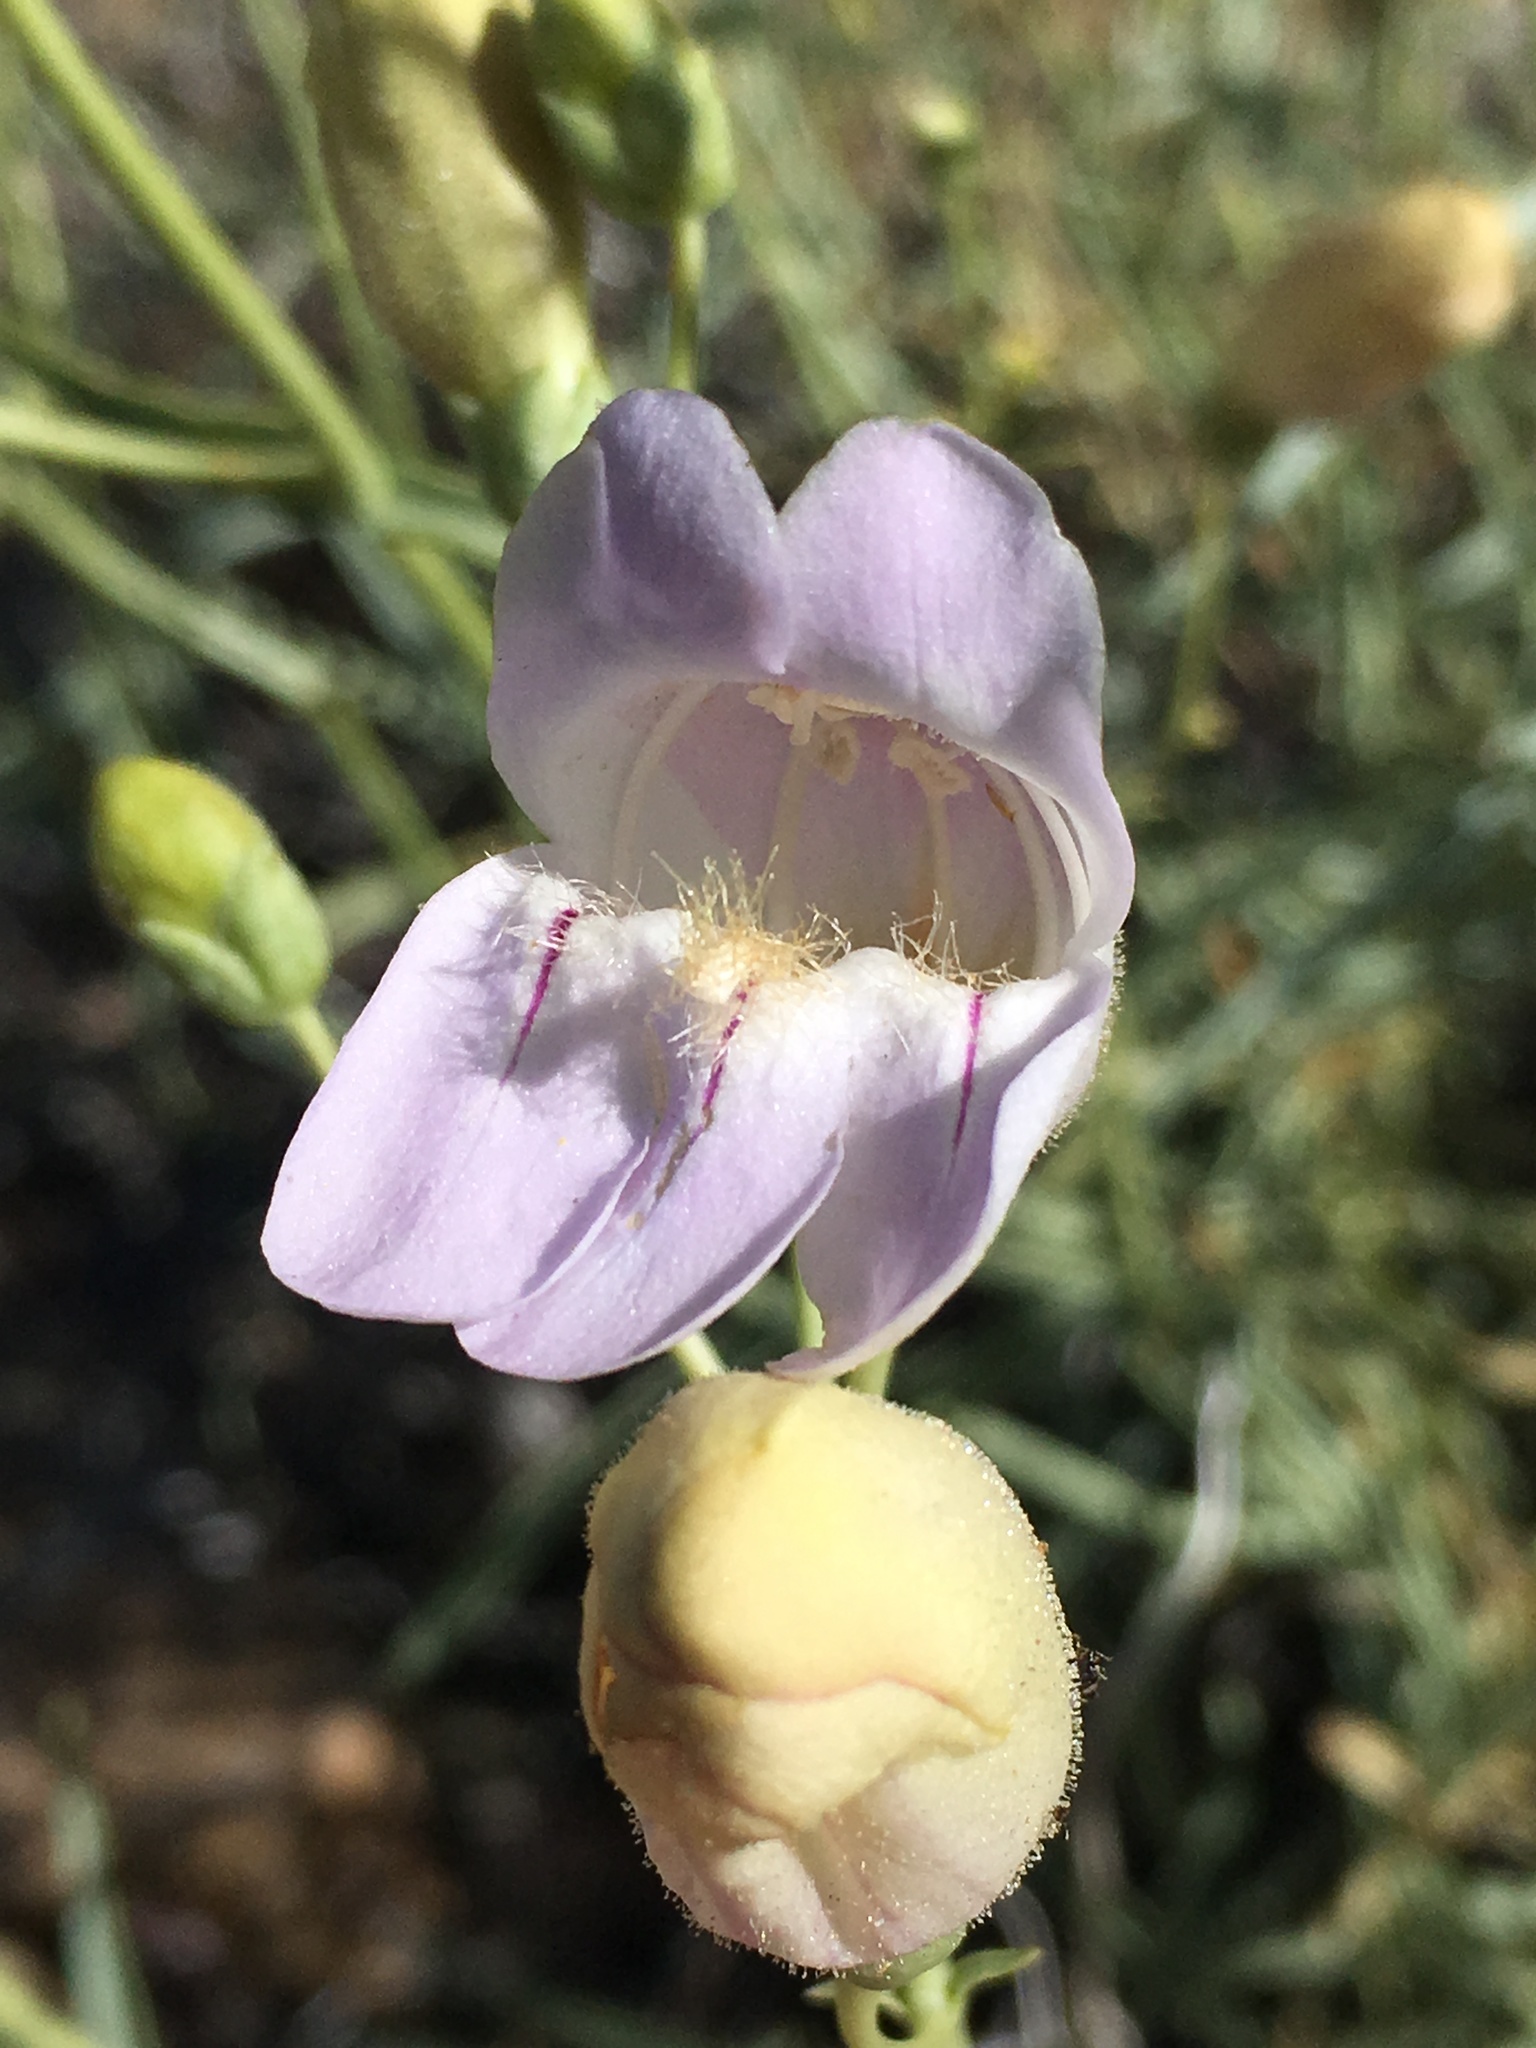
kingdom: Plantae
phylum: Tracheophyta
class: Magnoliopsida
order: Lamiales
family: Plantaginaceae
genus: Penstemon
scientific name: Penstemon fruticiformis
